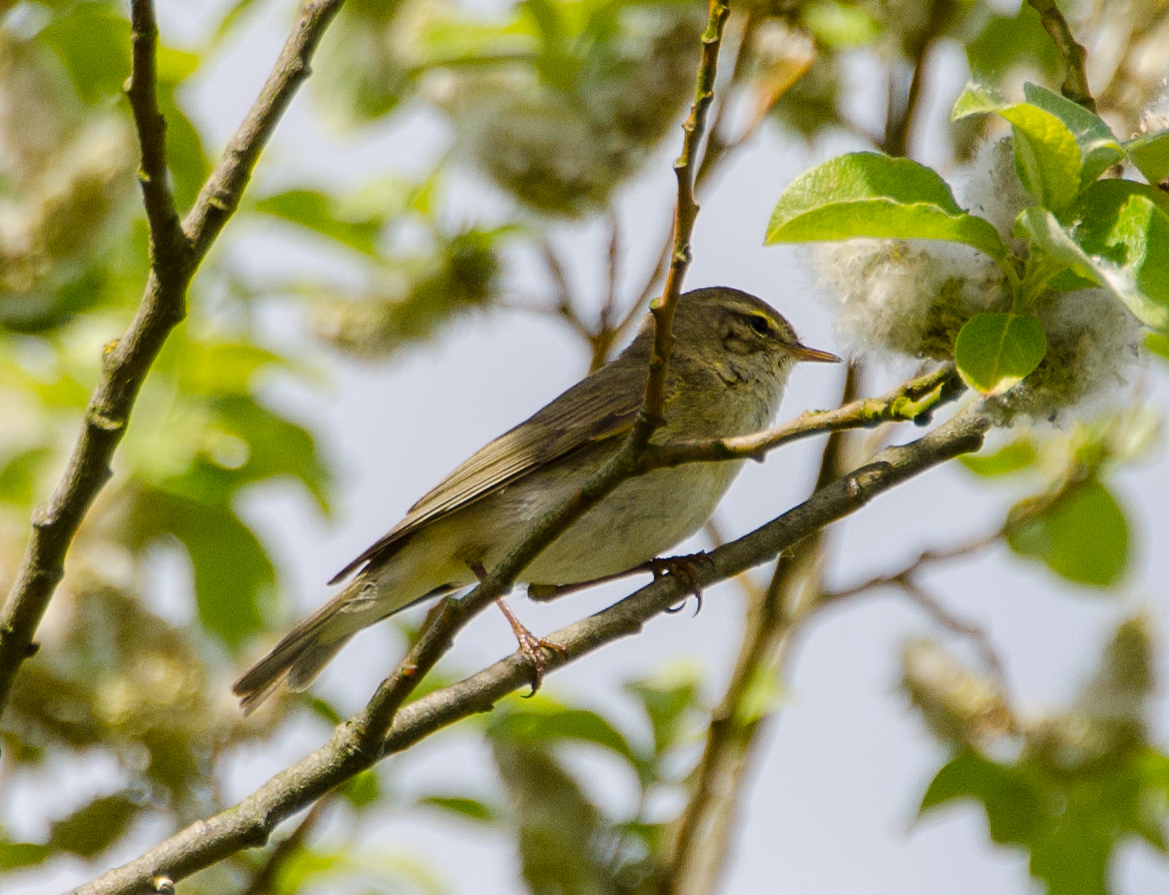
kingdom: Animalia
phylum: Chordata
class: Aves
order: Passeriformes
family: Phylloscopidae
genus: Phylloscopus
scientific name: Phylloscopus trochilus
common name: Willow warbler
